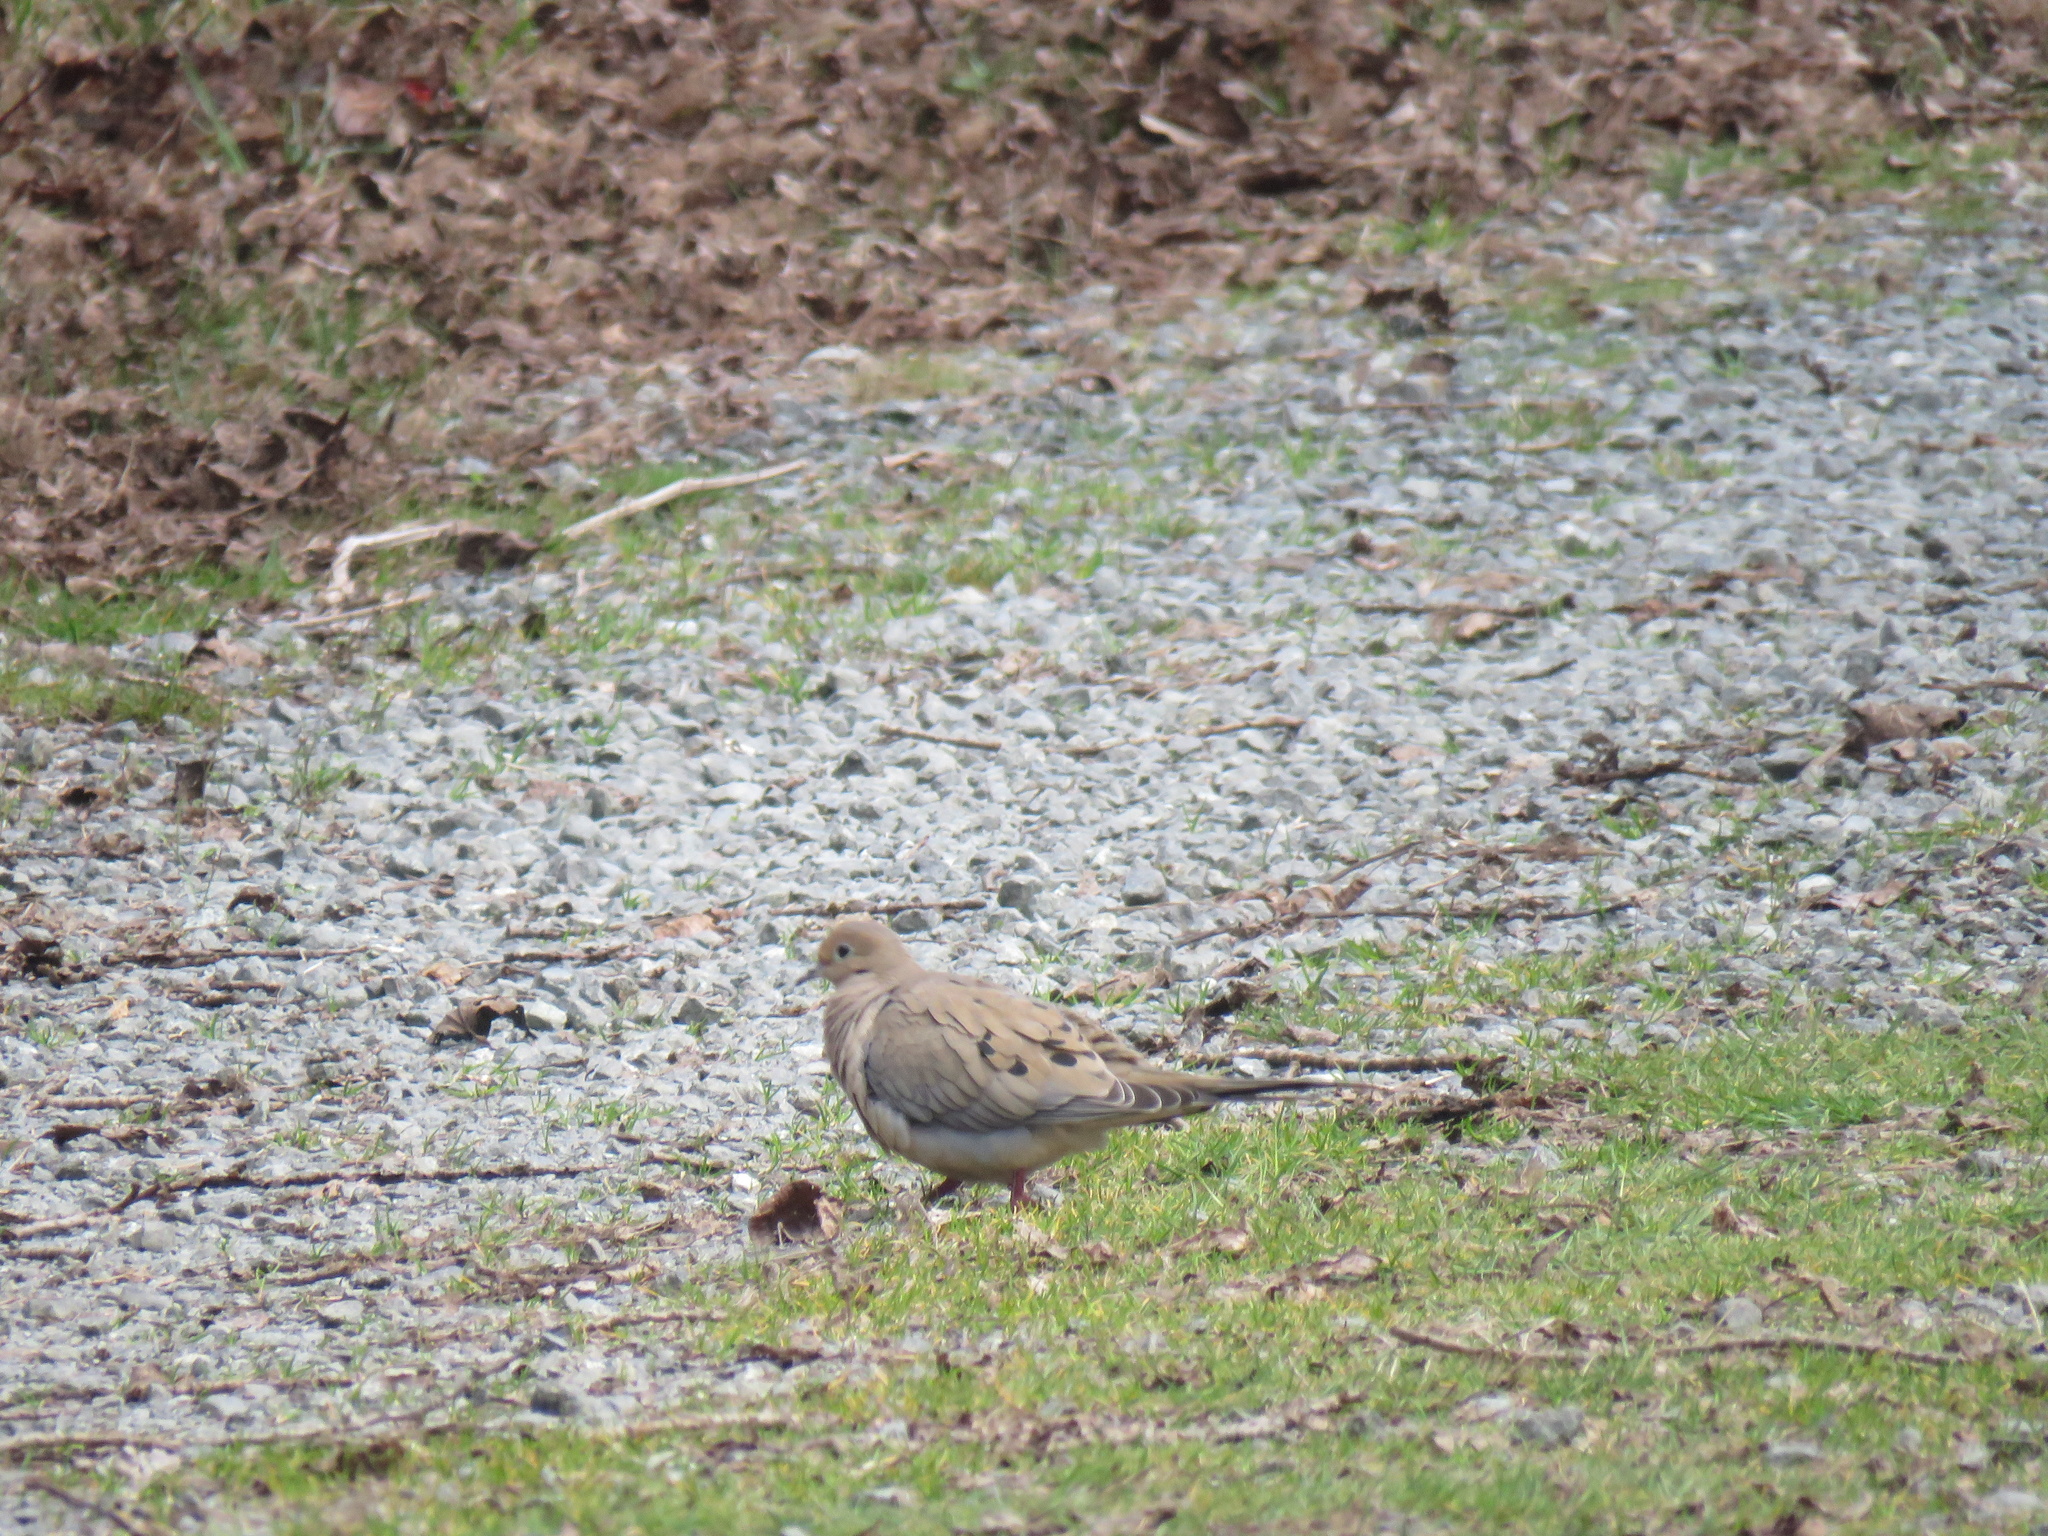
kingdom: Animalia
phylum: Chordata
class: Aves
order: Columbiformes
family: Columbidae
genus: Zenaida
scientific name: Zenaida macroura
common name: Mourning dove
